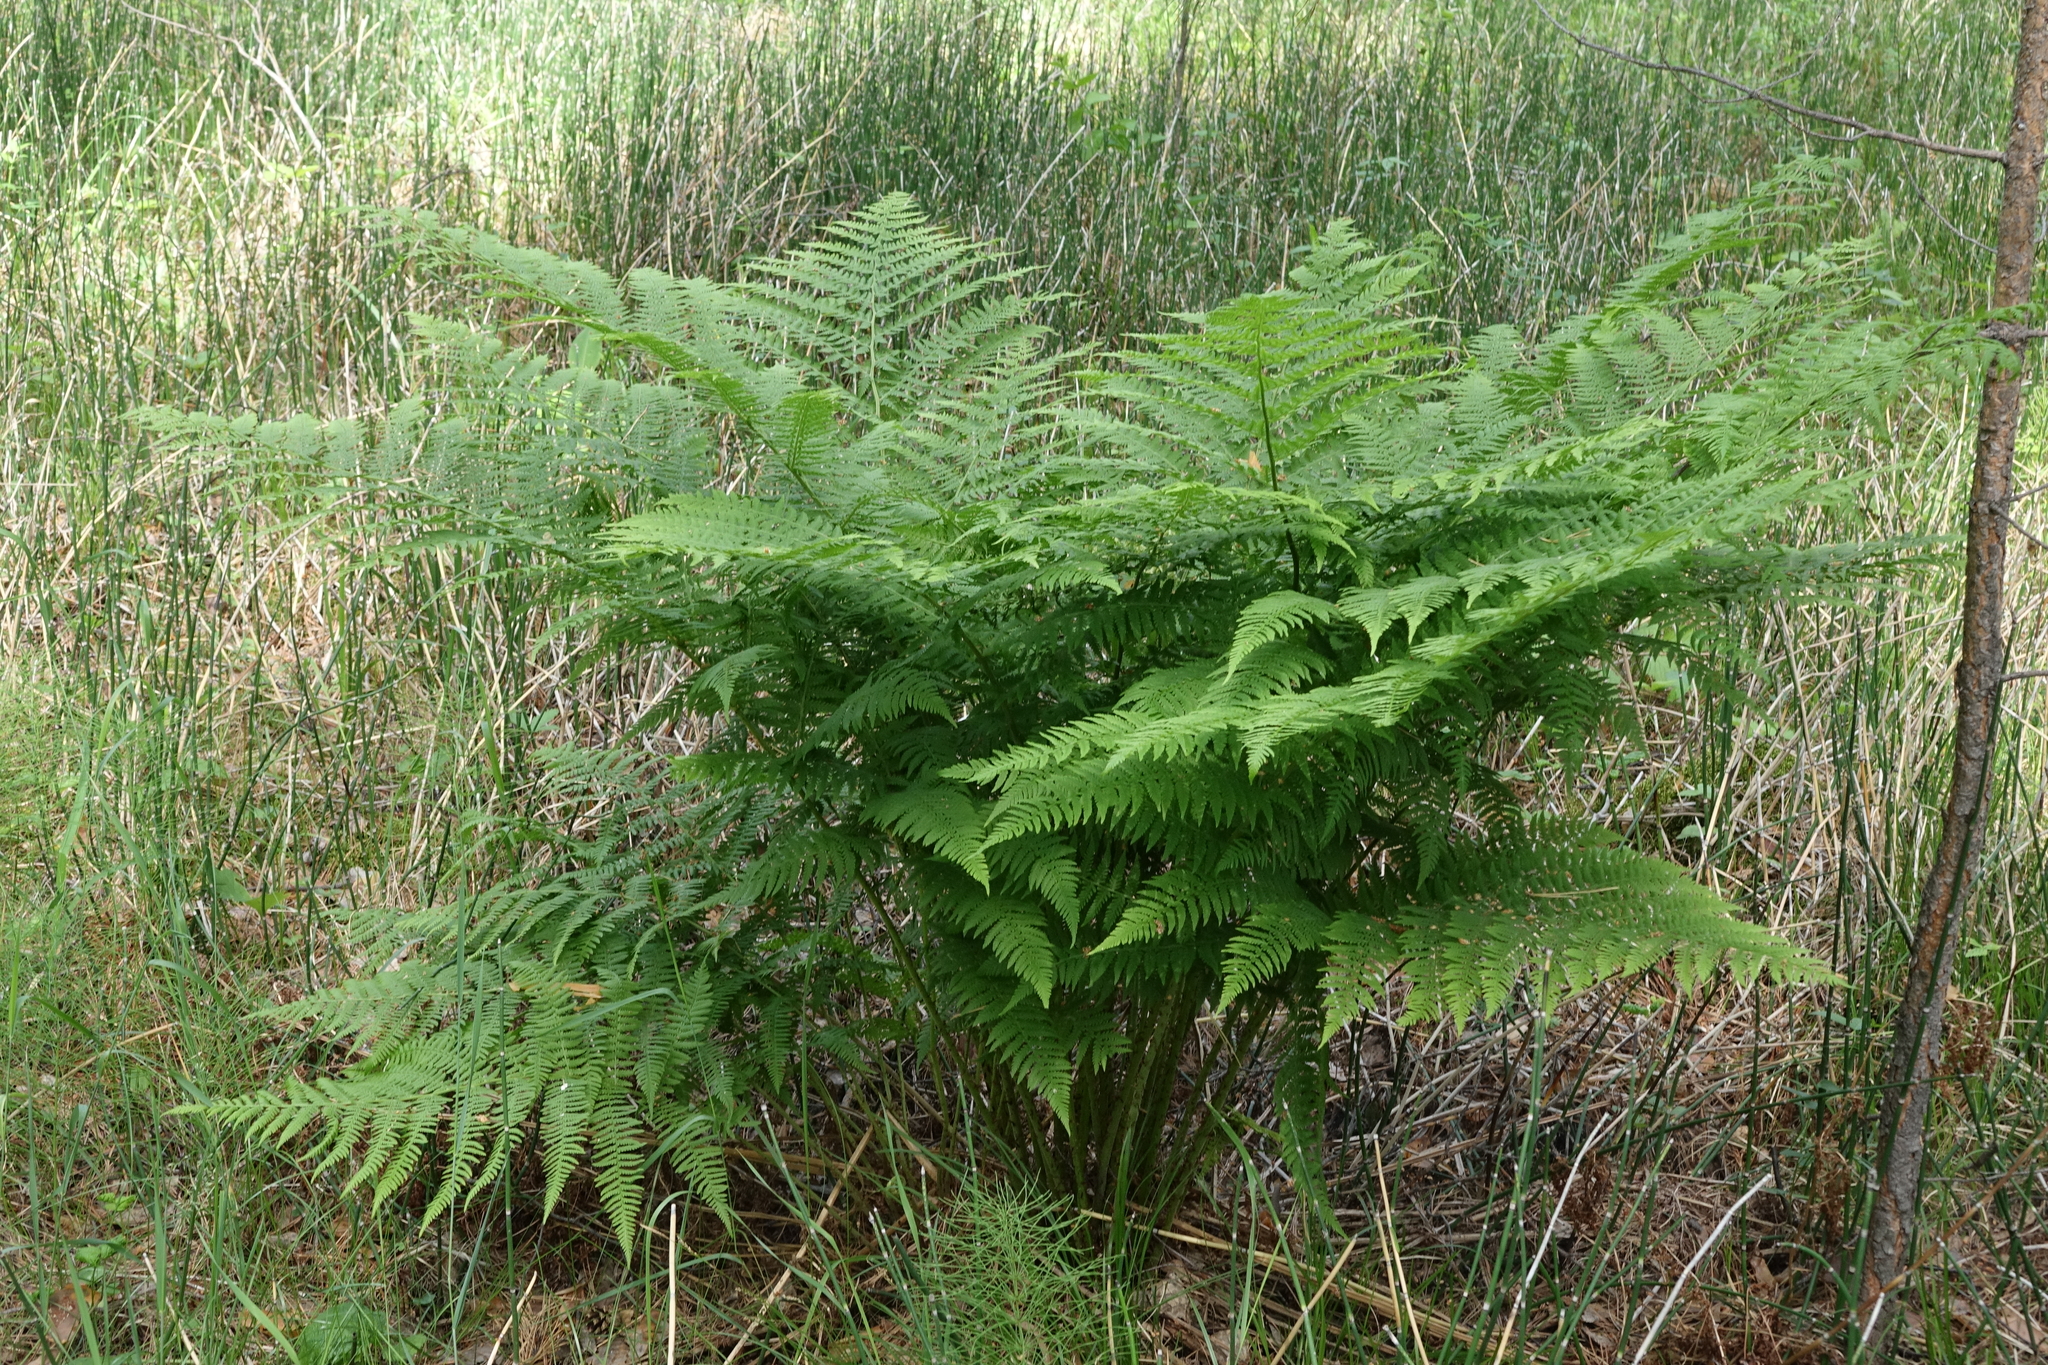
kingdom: Plantae
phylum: Tracheophyta
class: Polypodiopsida
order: Polypodiales
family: Athyriaceae
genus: Athyrium
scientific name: Athyrium filix-femina
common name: Lady fern
